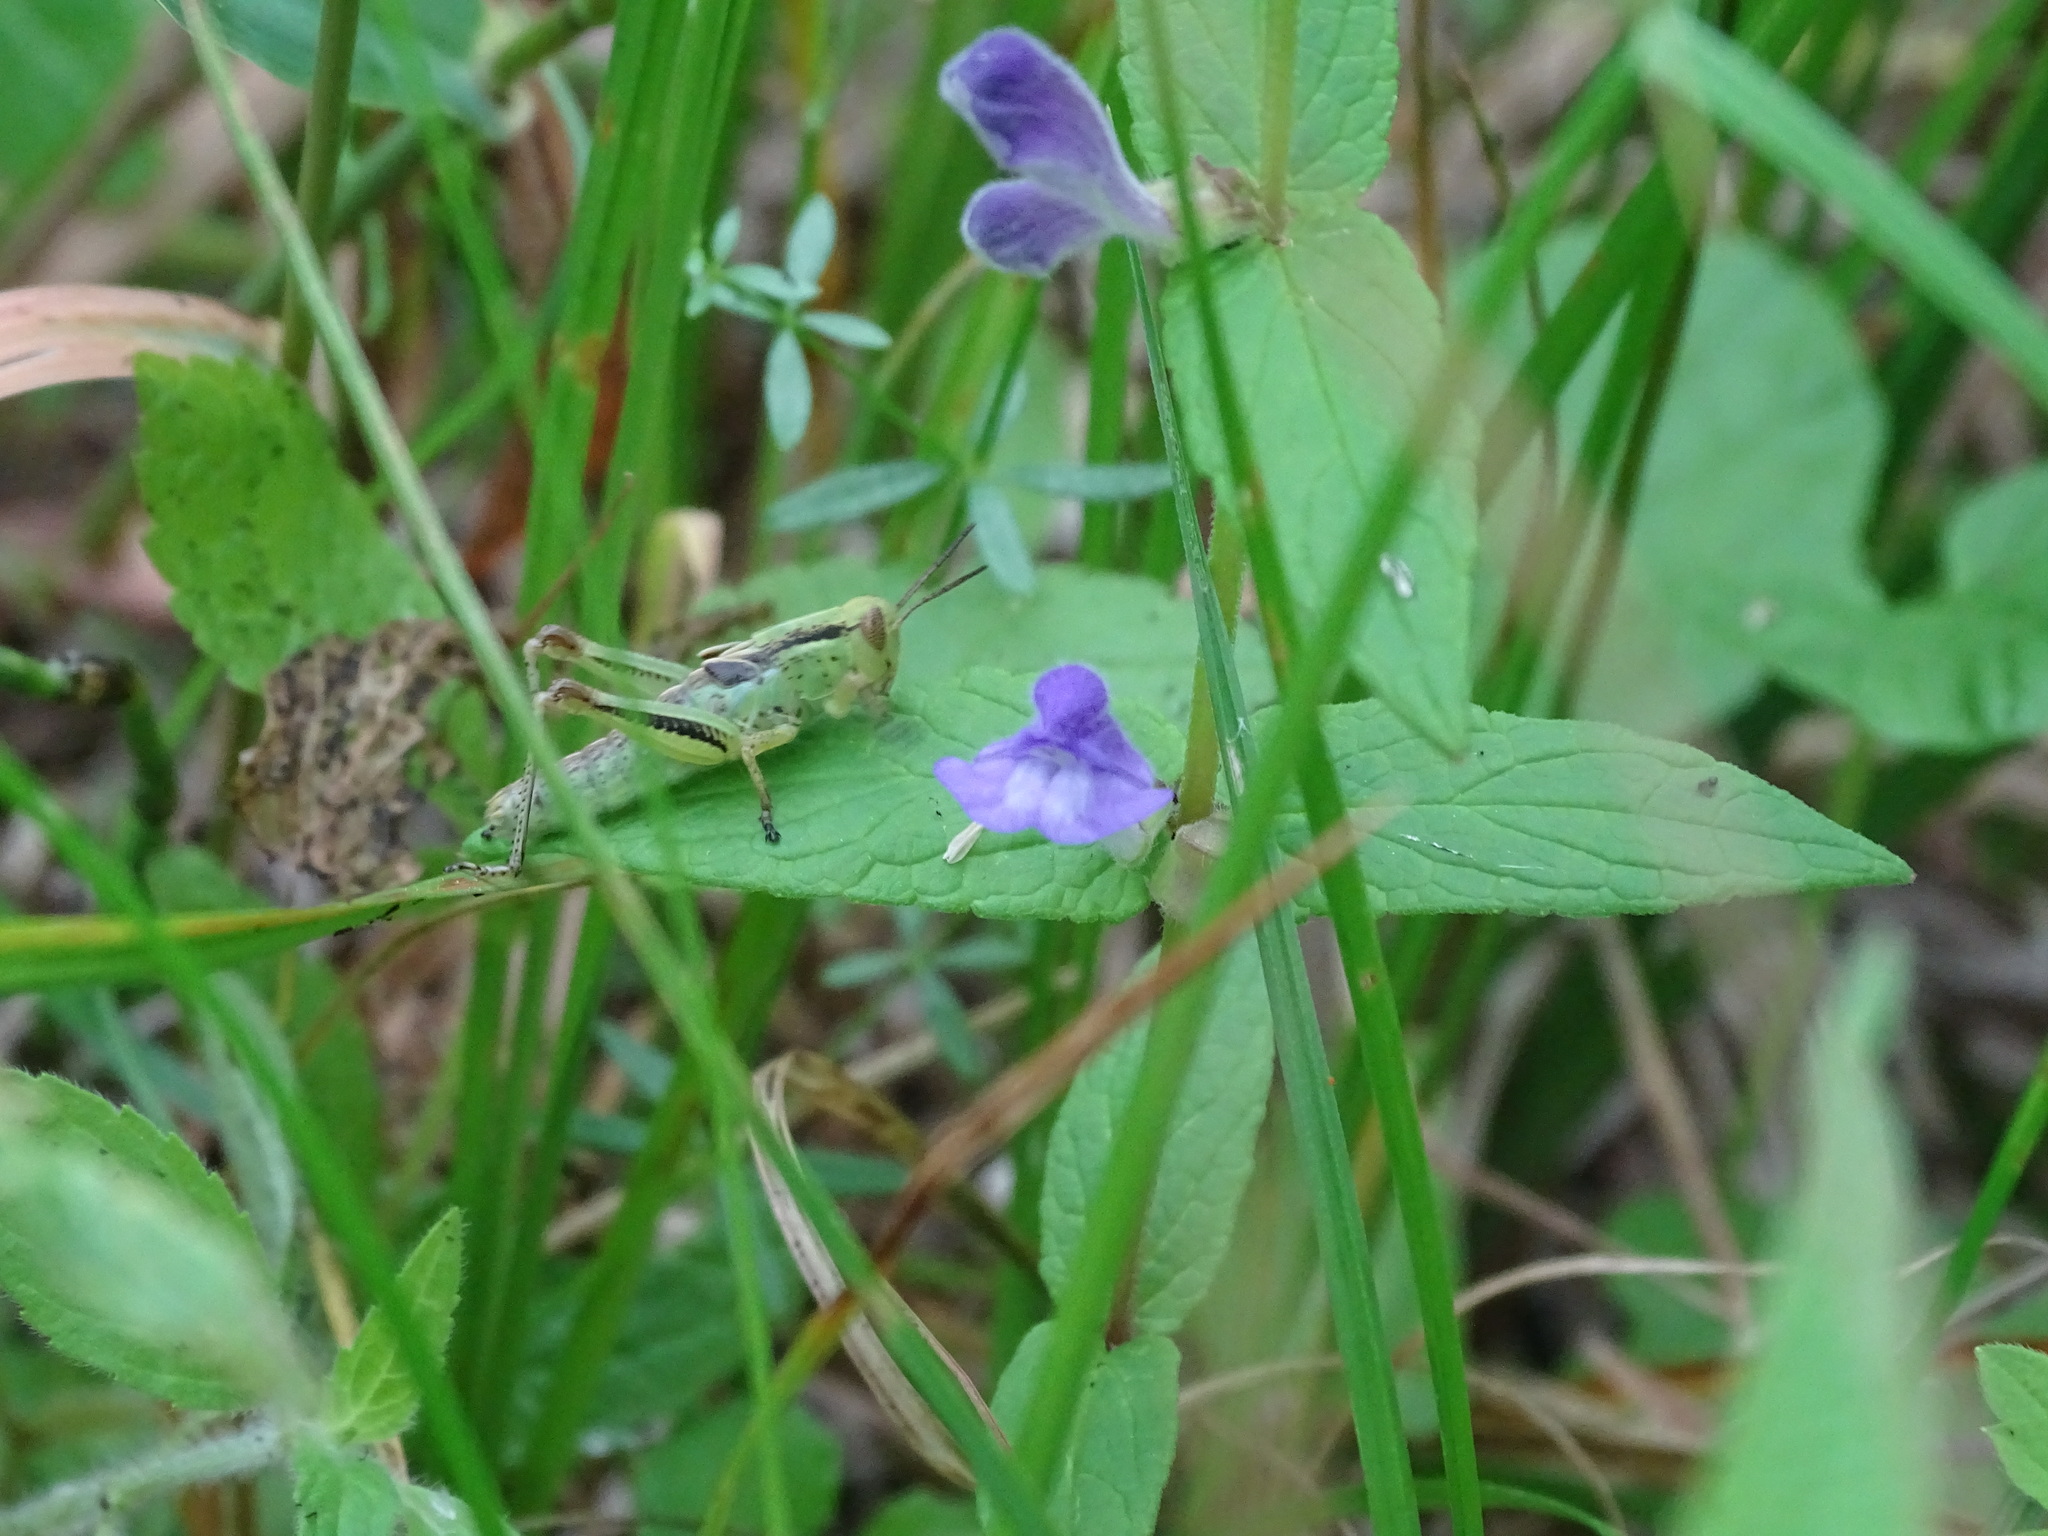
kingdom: Plantae
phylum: Tracheophyta
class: Magnoliopsida
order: Lamiales
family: Lamiaceae
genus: Scutellaria
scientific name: Scutellaria galericulata
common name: Skullcap
